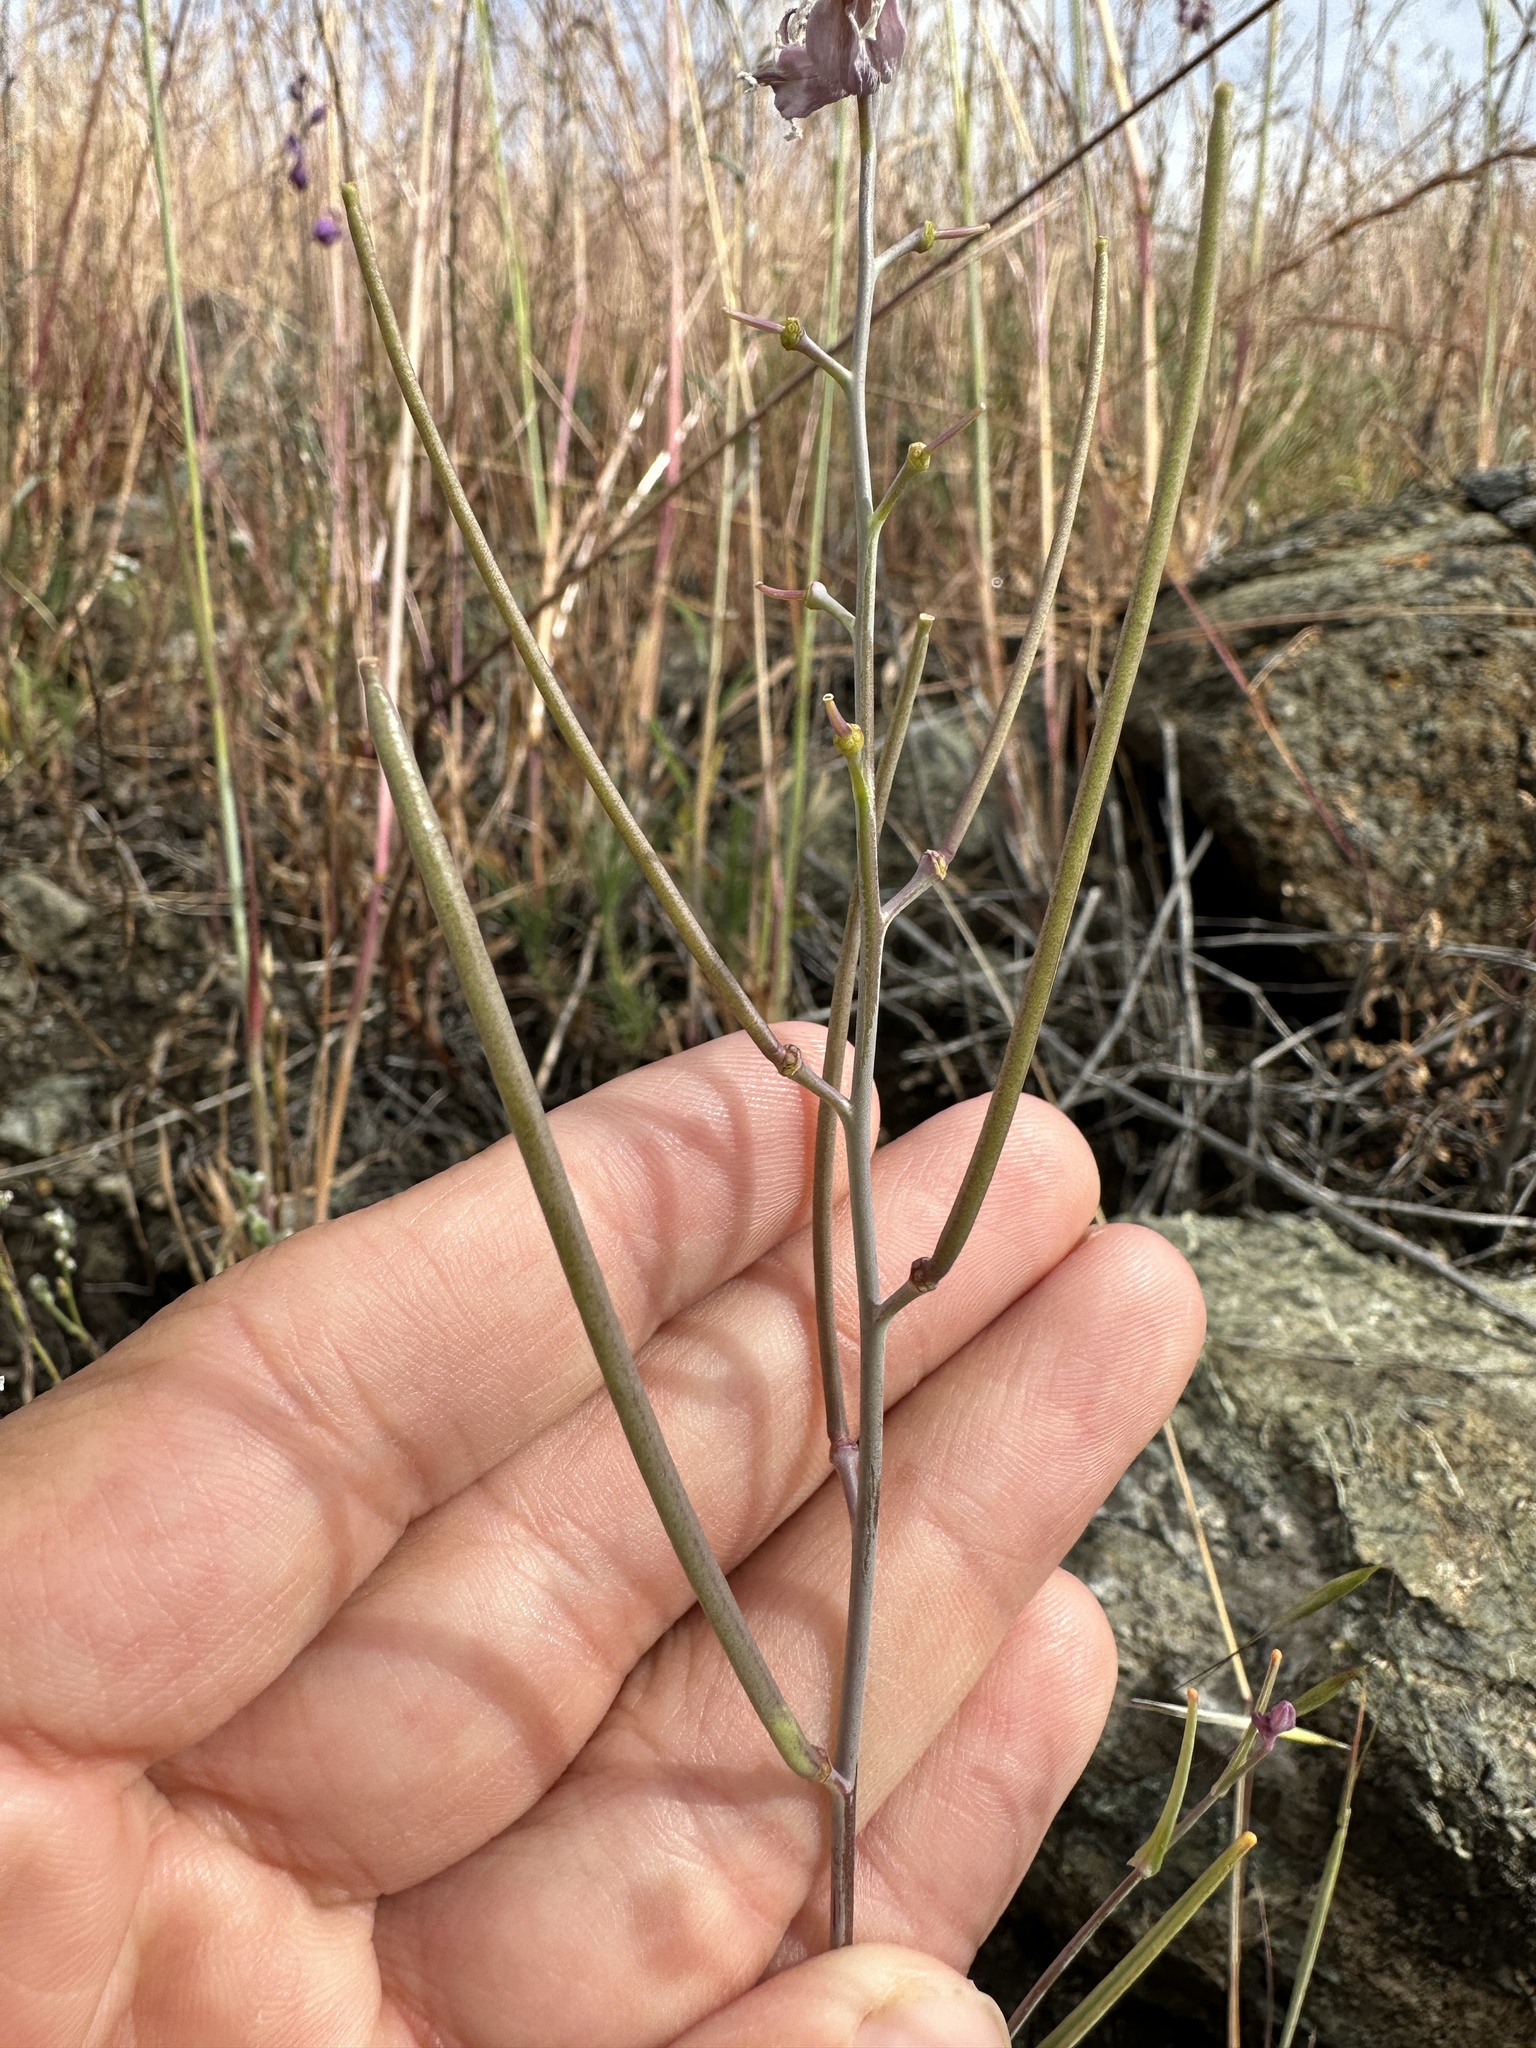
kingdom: Plantae
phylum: Tracheophyta
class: Magnoliopsida
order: Brassicales
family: Brassicaceae
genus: Streptanthus
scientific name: Streptanthus glandulosus
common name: Jewel-flower
